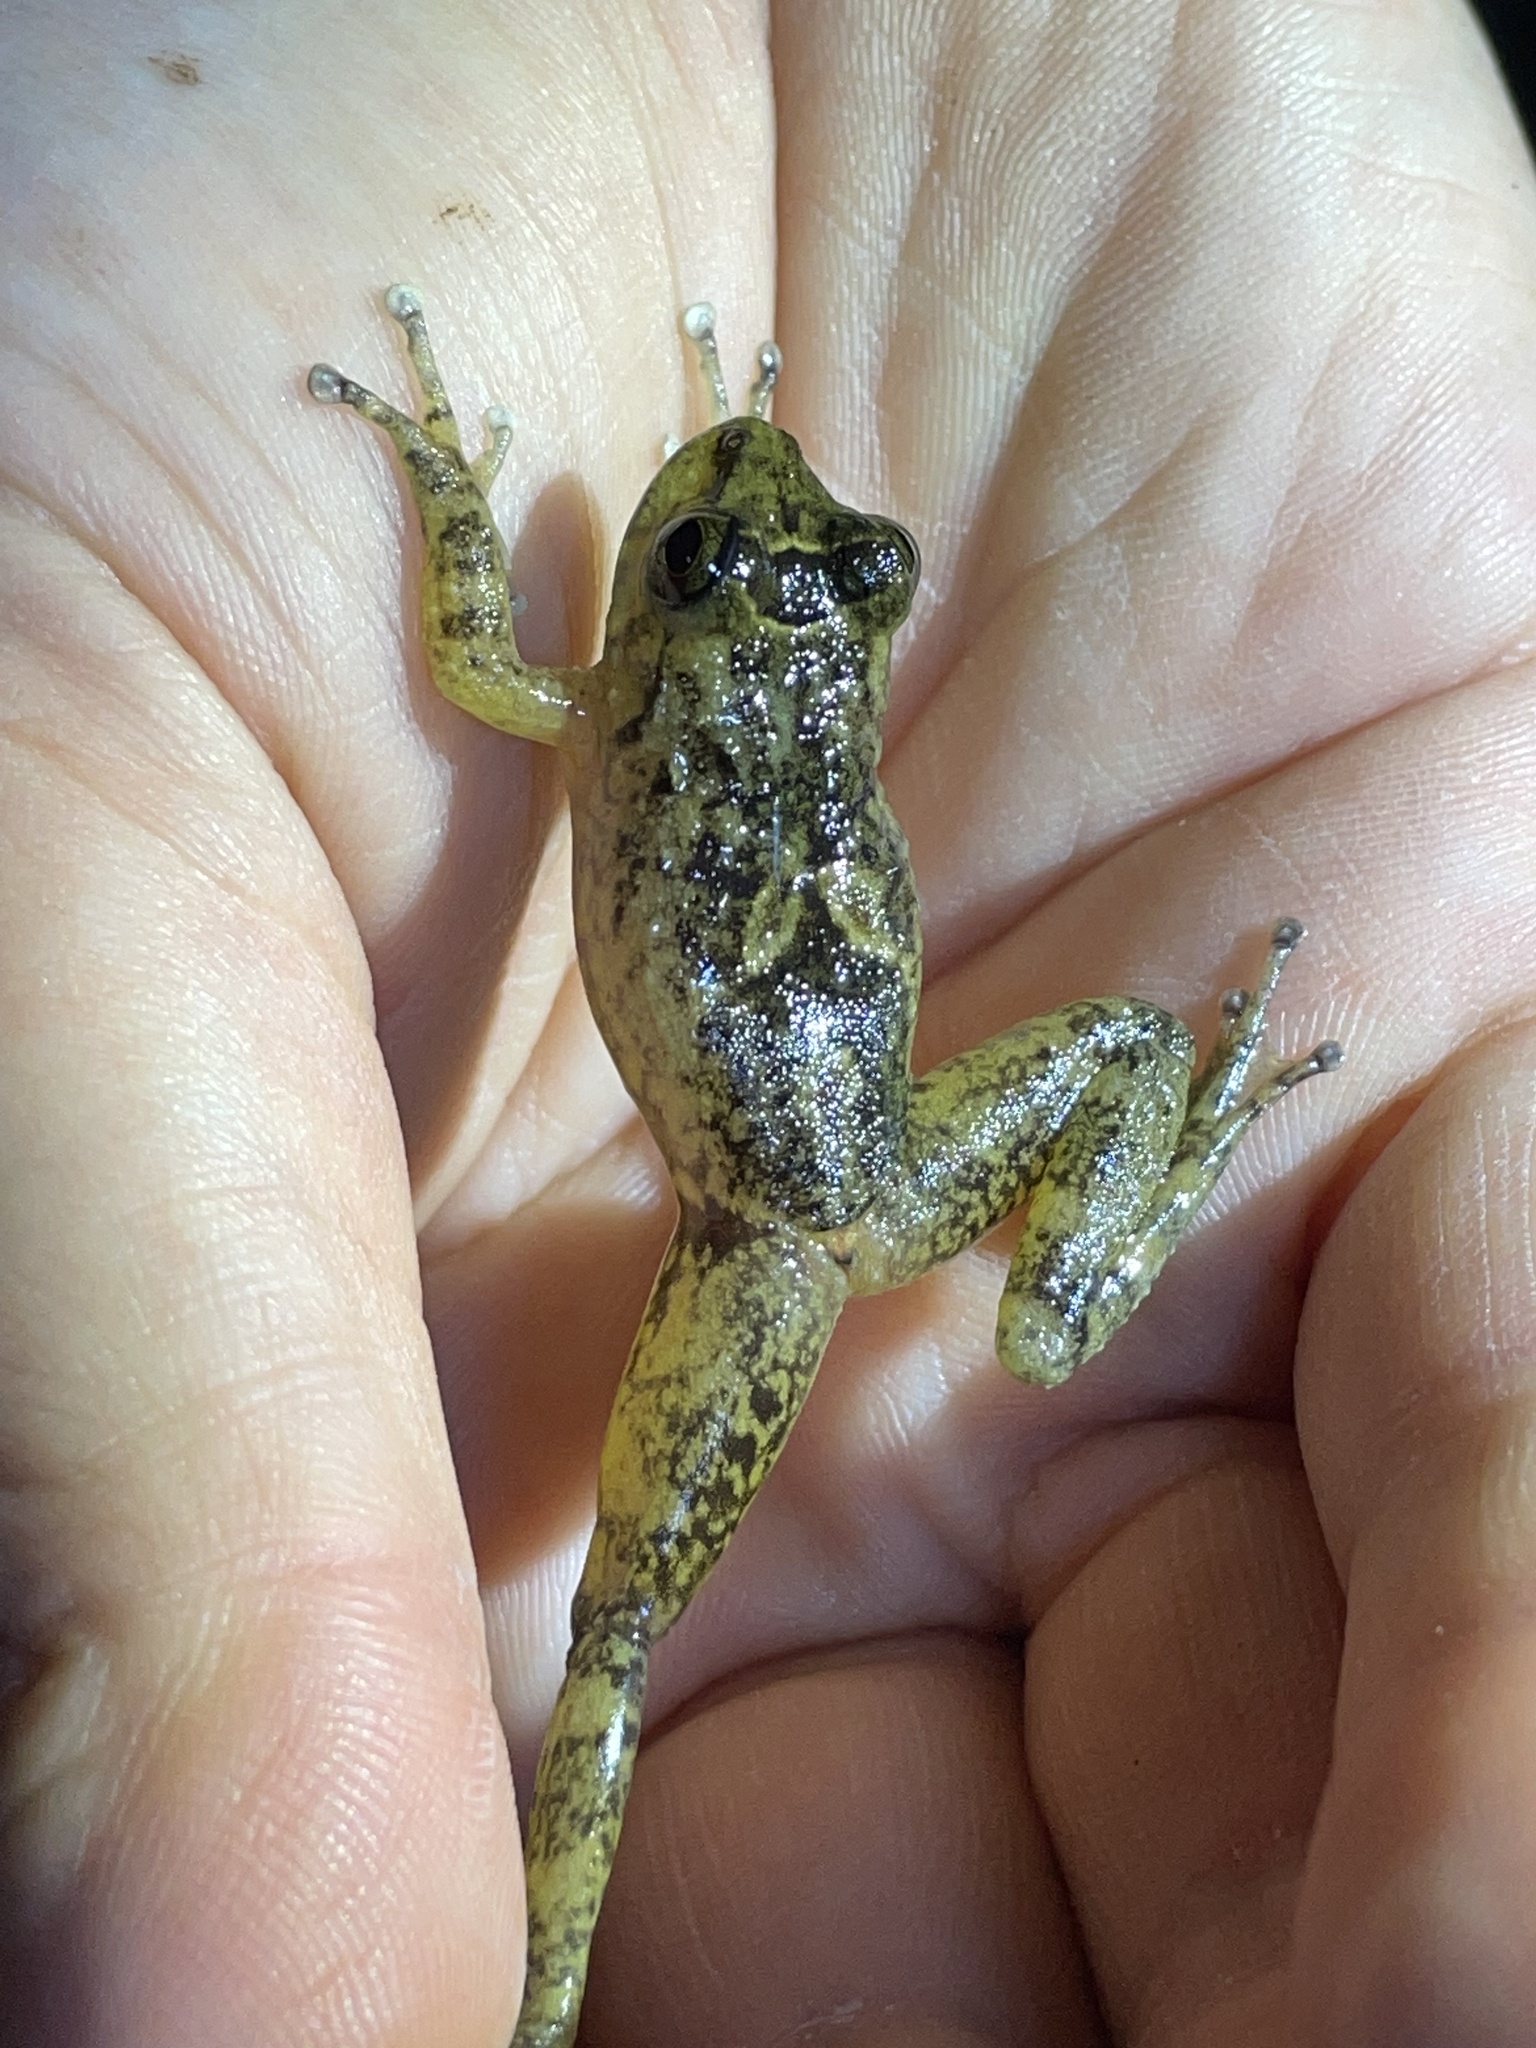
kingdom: Animalia
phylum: Chordata
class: Amphibia
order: Anura
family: Hemiphractidae
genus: Cryptobatrachus
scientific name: Cryptobatrachus boulengeri
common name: Boulenger's backpack frog
